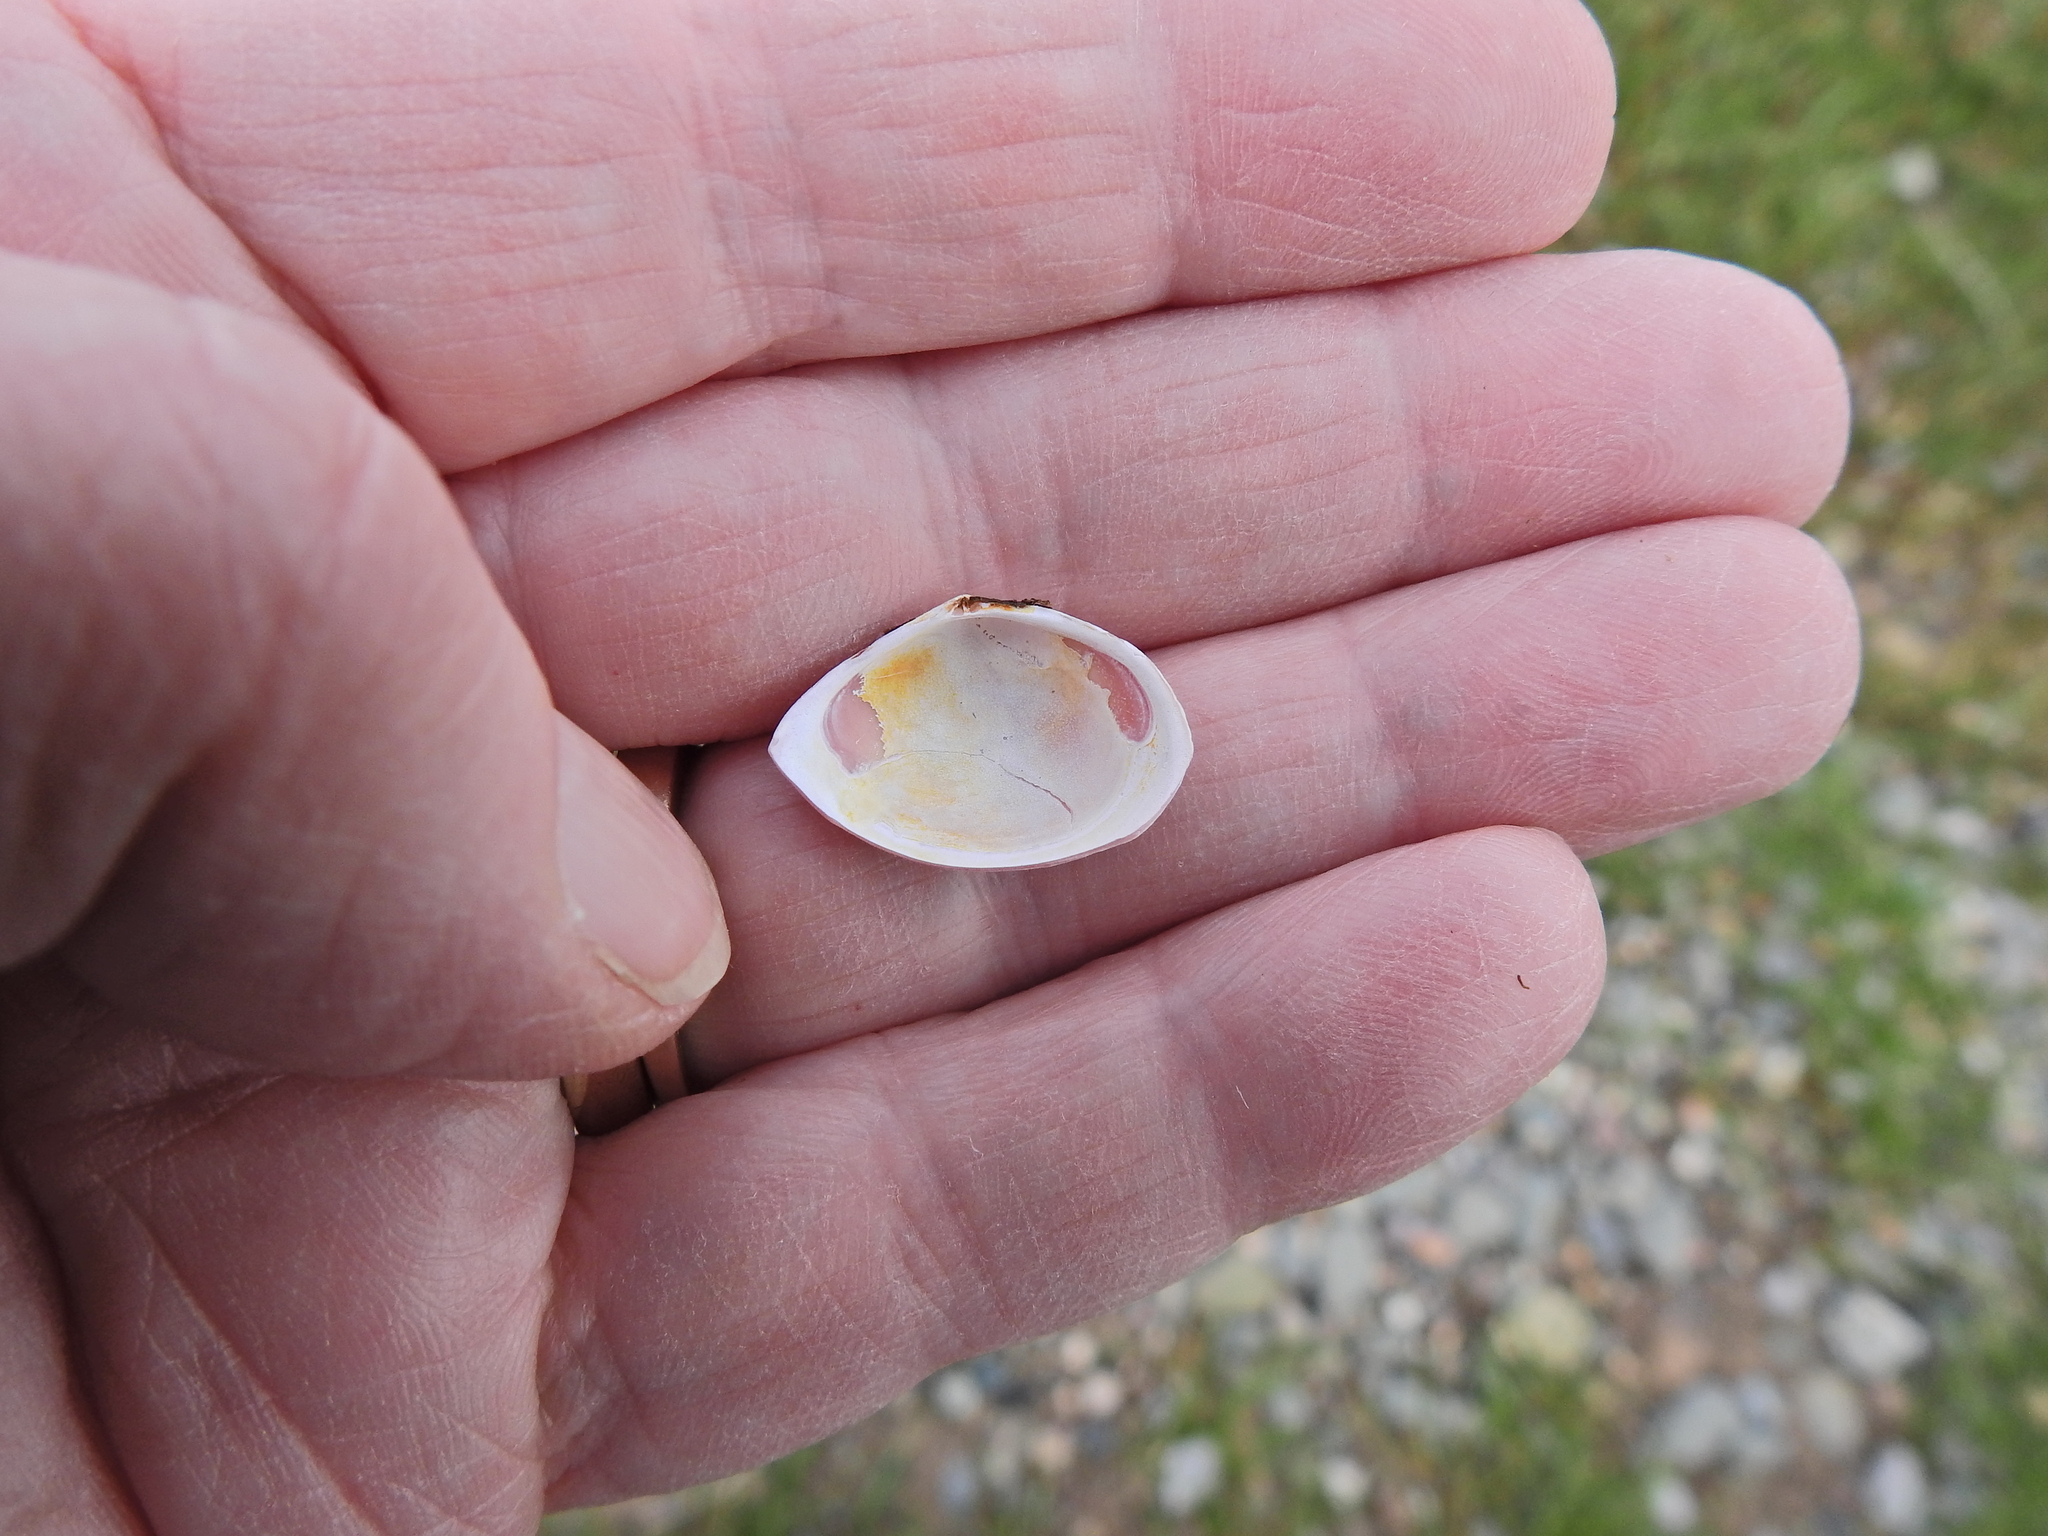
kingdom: Animalia
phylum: Mollusca
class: Bivalvia
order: Cardiida
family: Tellinidae
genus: Macoma
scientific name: Macoma balthica
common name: Baltic tellin
